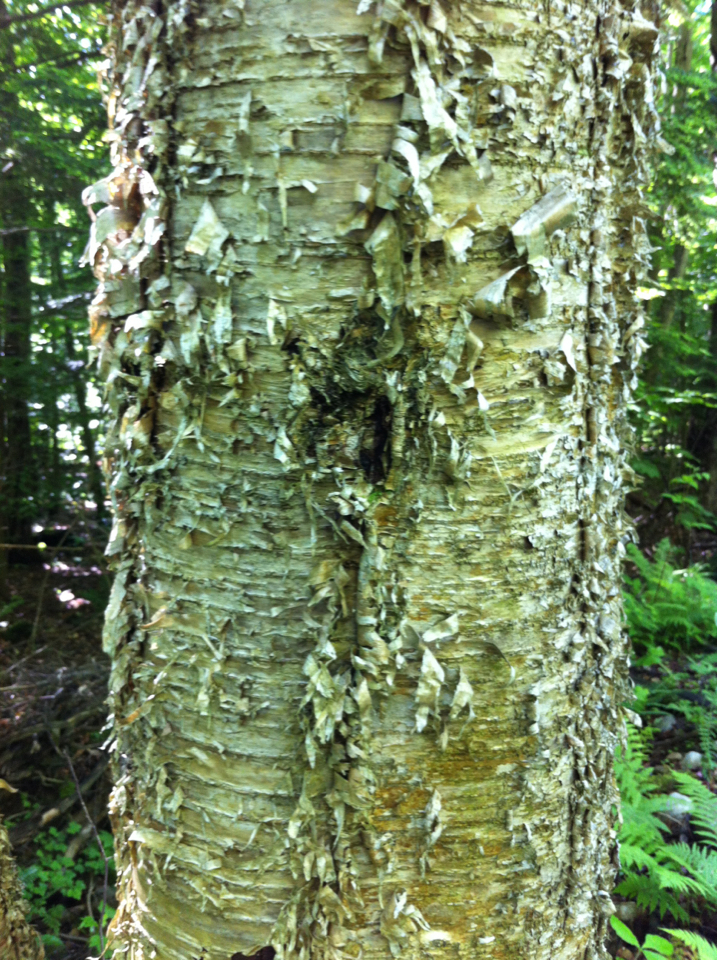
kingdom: Plantae
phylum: Tracheophyta
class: Magnoliopsida
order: Fagales
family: Betulaceae
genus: Betula
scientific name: Betula alleghaniensis
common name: Yellow birch
